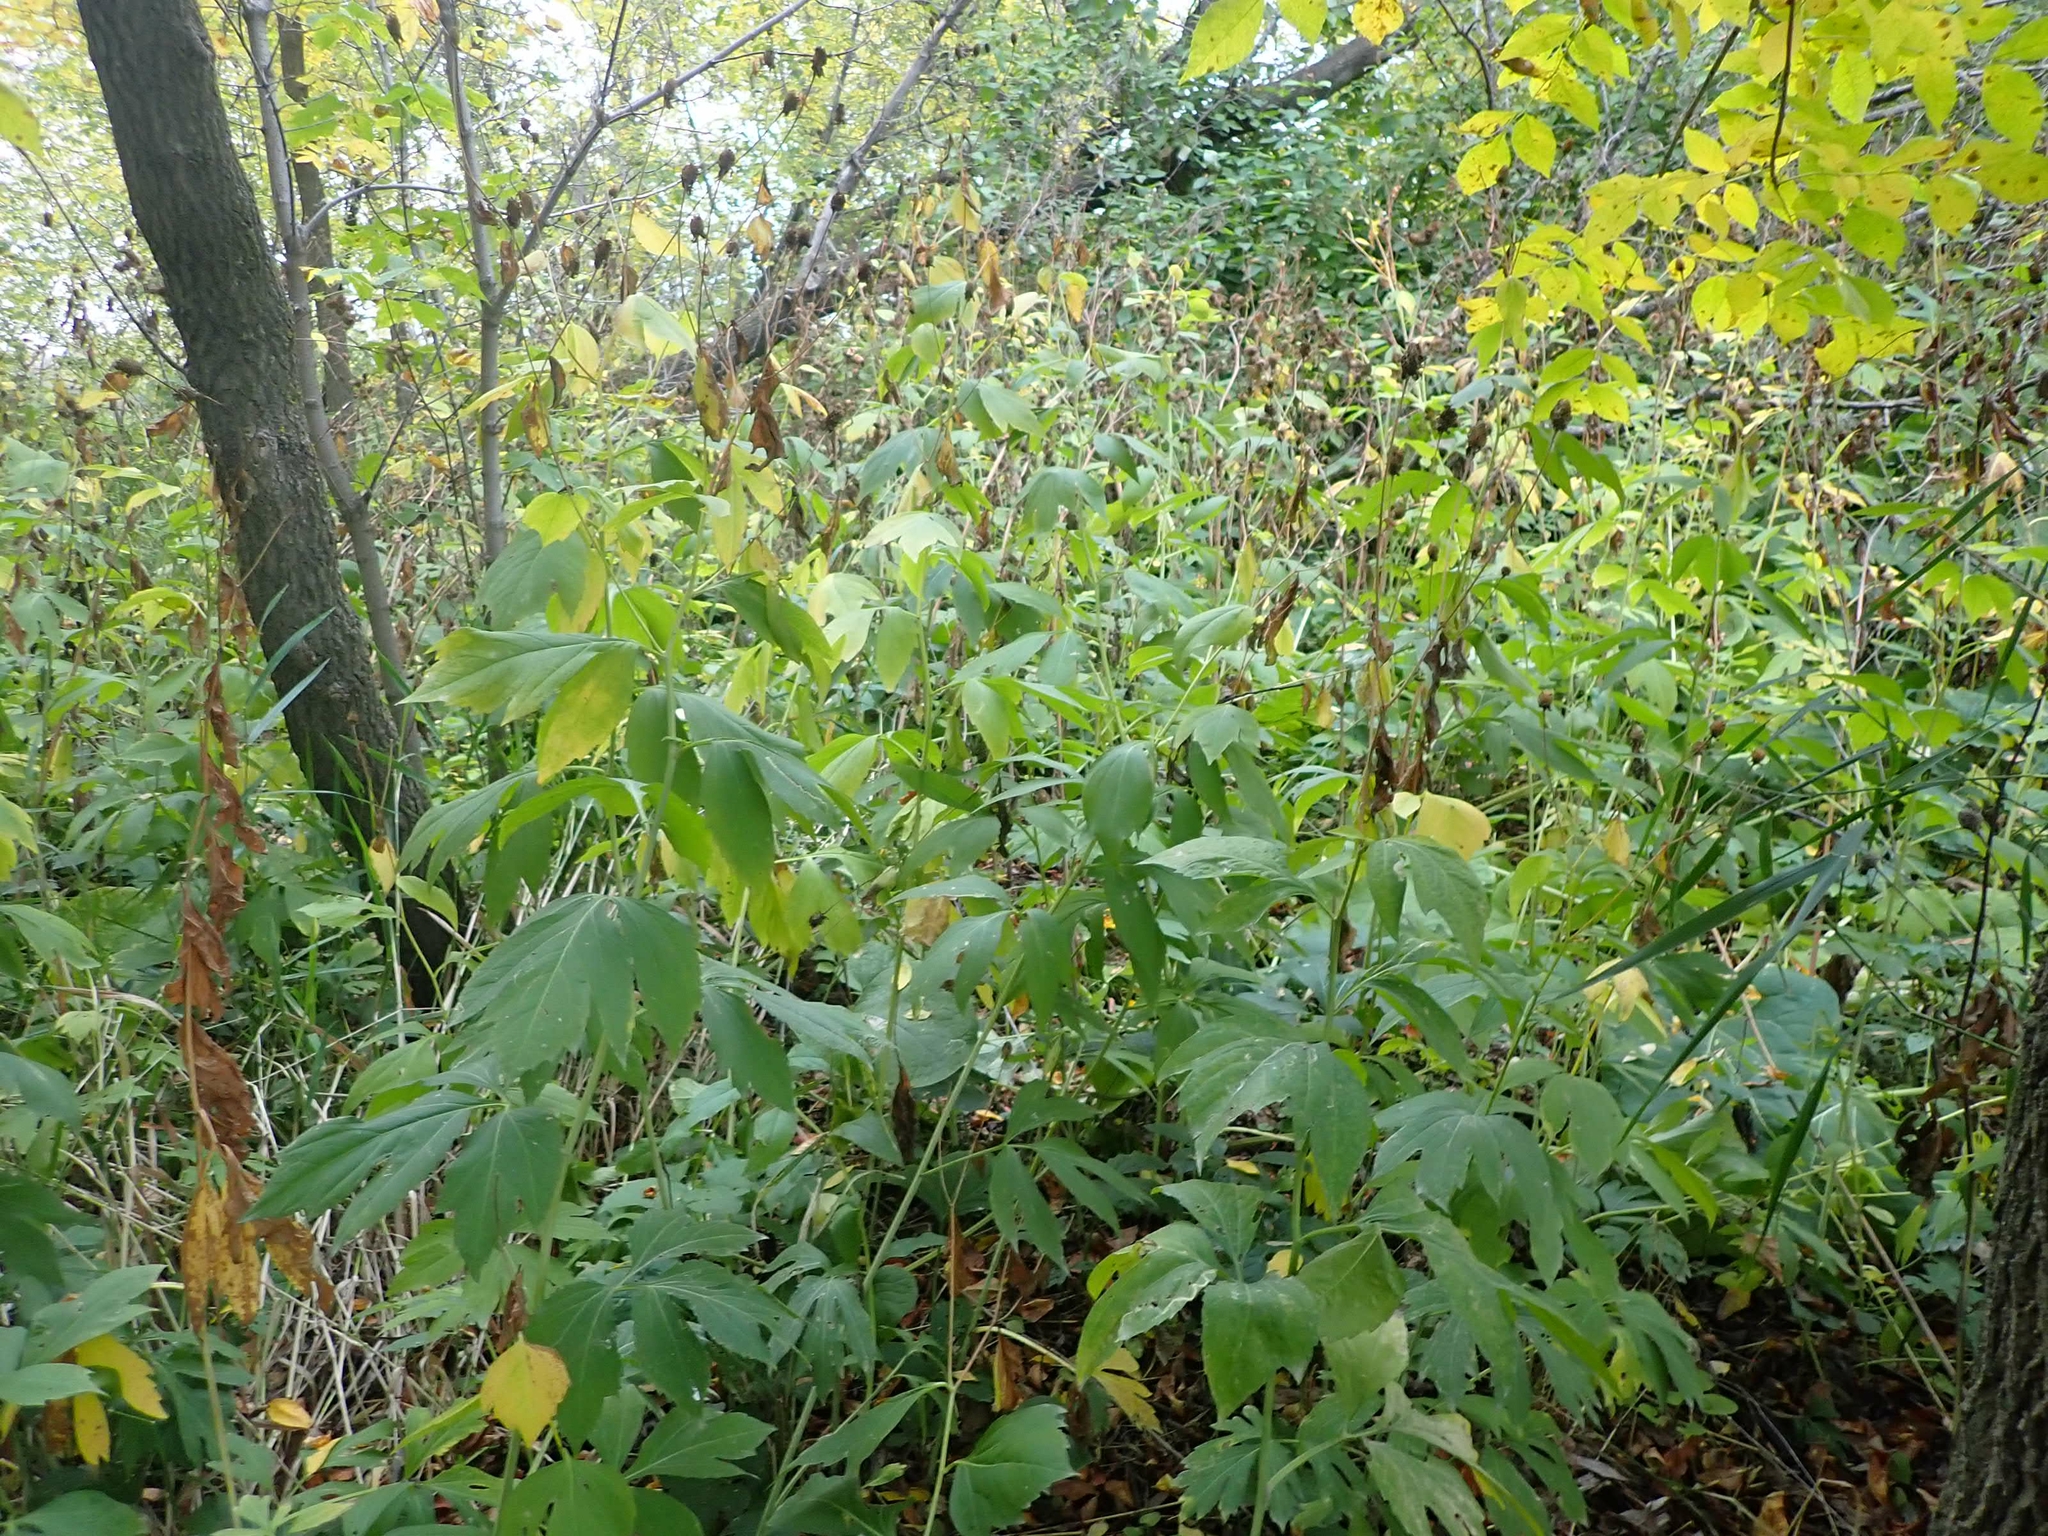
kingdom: Plantae
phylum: Tracheophyta
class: Magnoliopsida
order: Asterales
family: Asteraceae
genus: Rudbeckia
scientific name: Rudbeckia laciniata
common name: Coneflower
